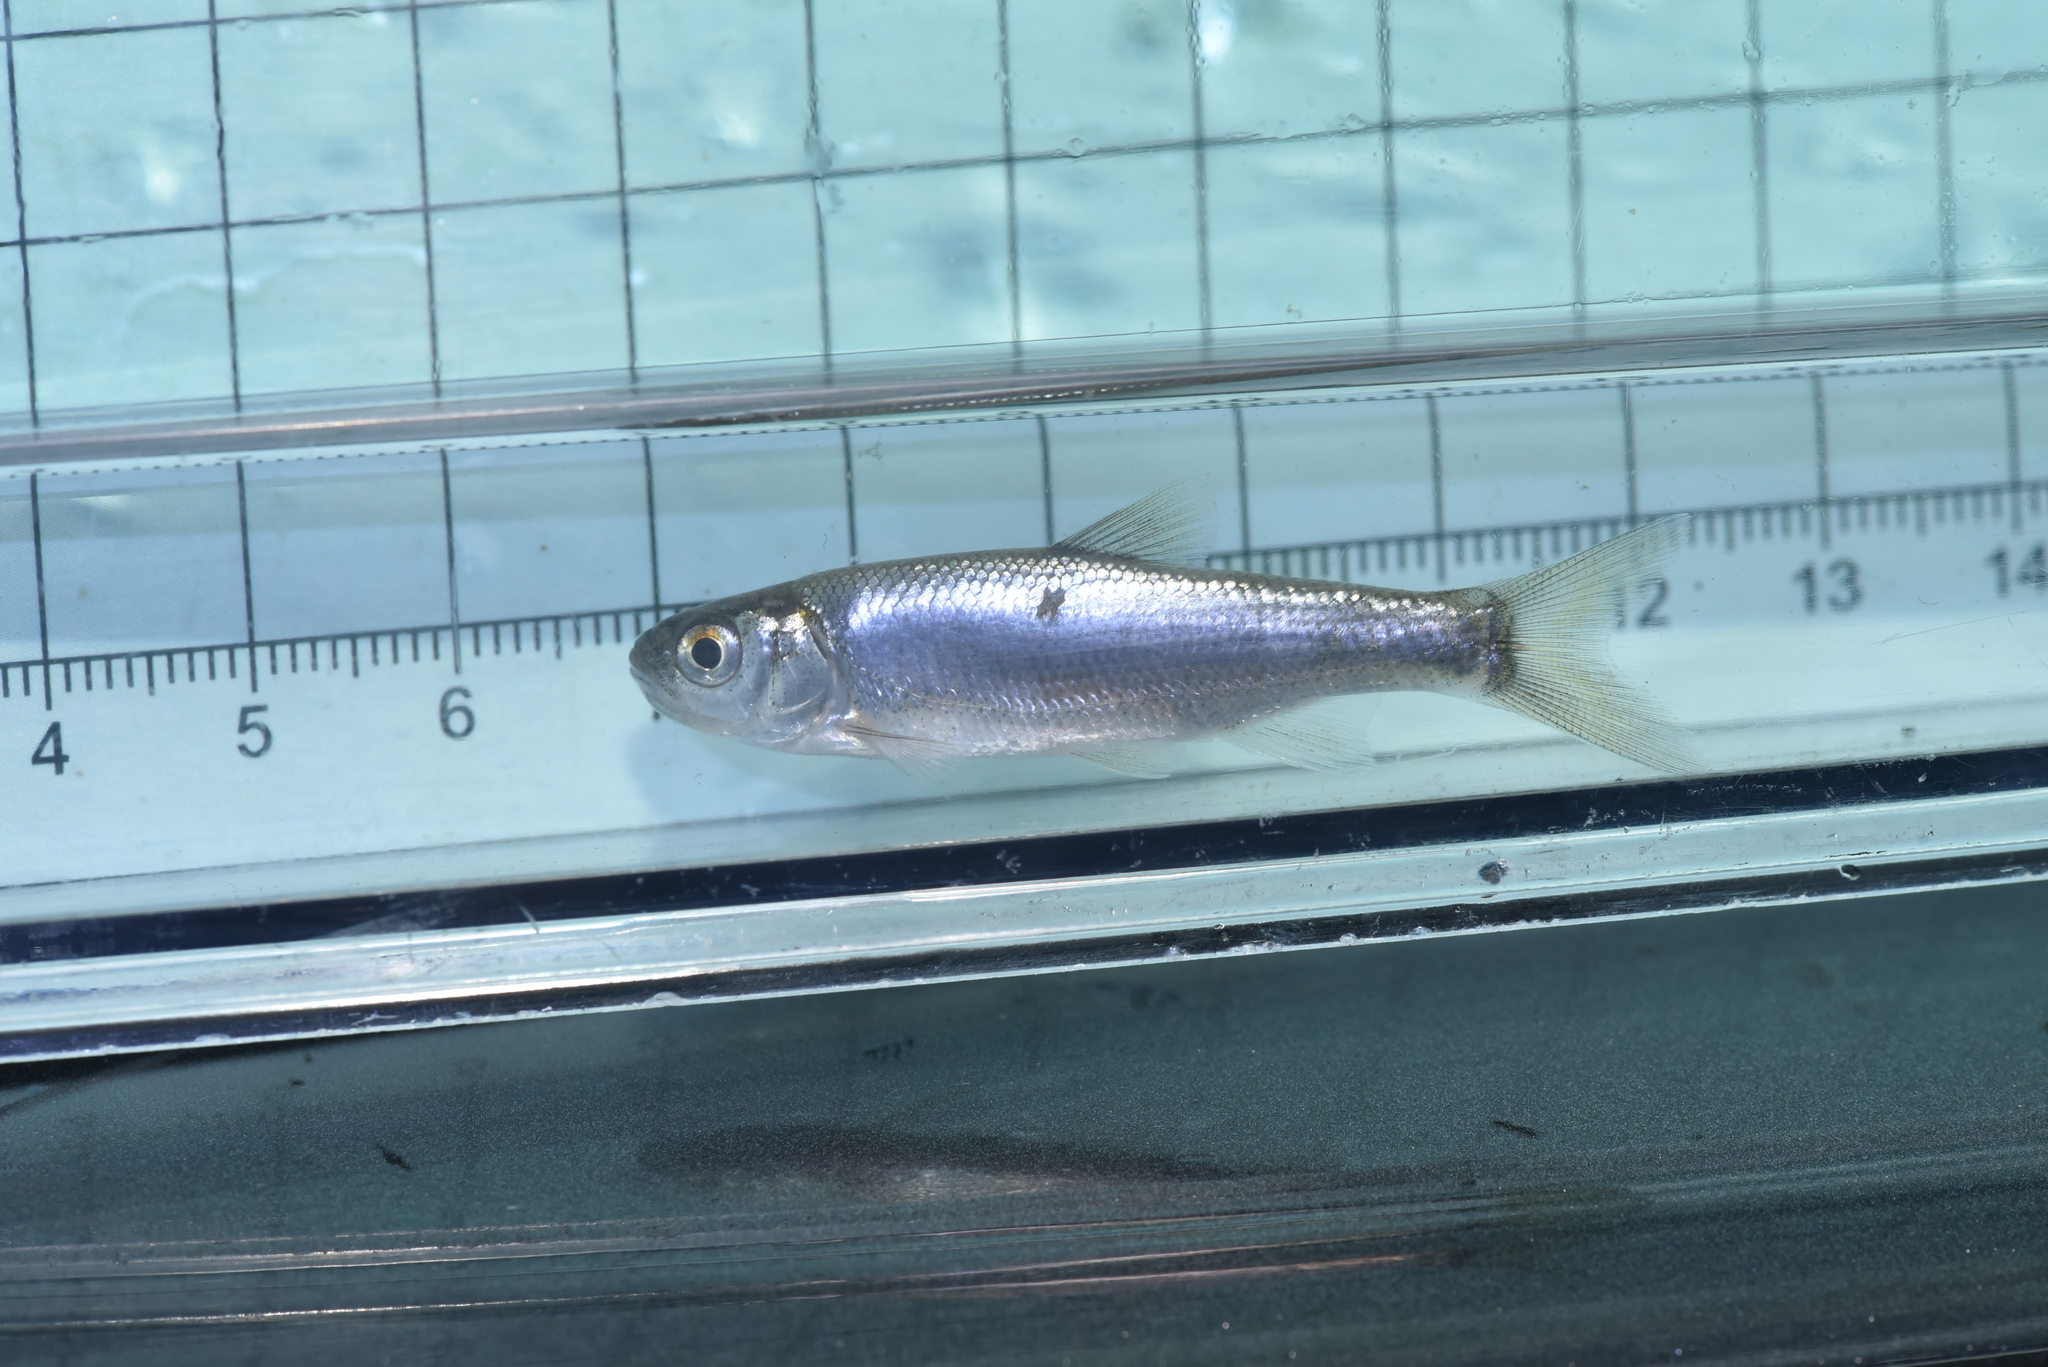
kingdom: Animalia
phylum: Chordata
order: Cypriniformes
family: Cyprinidae
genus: Opsariichthys
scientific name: Opsariichthys pachycephalus
